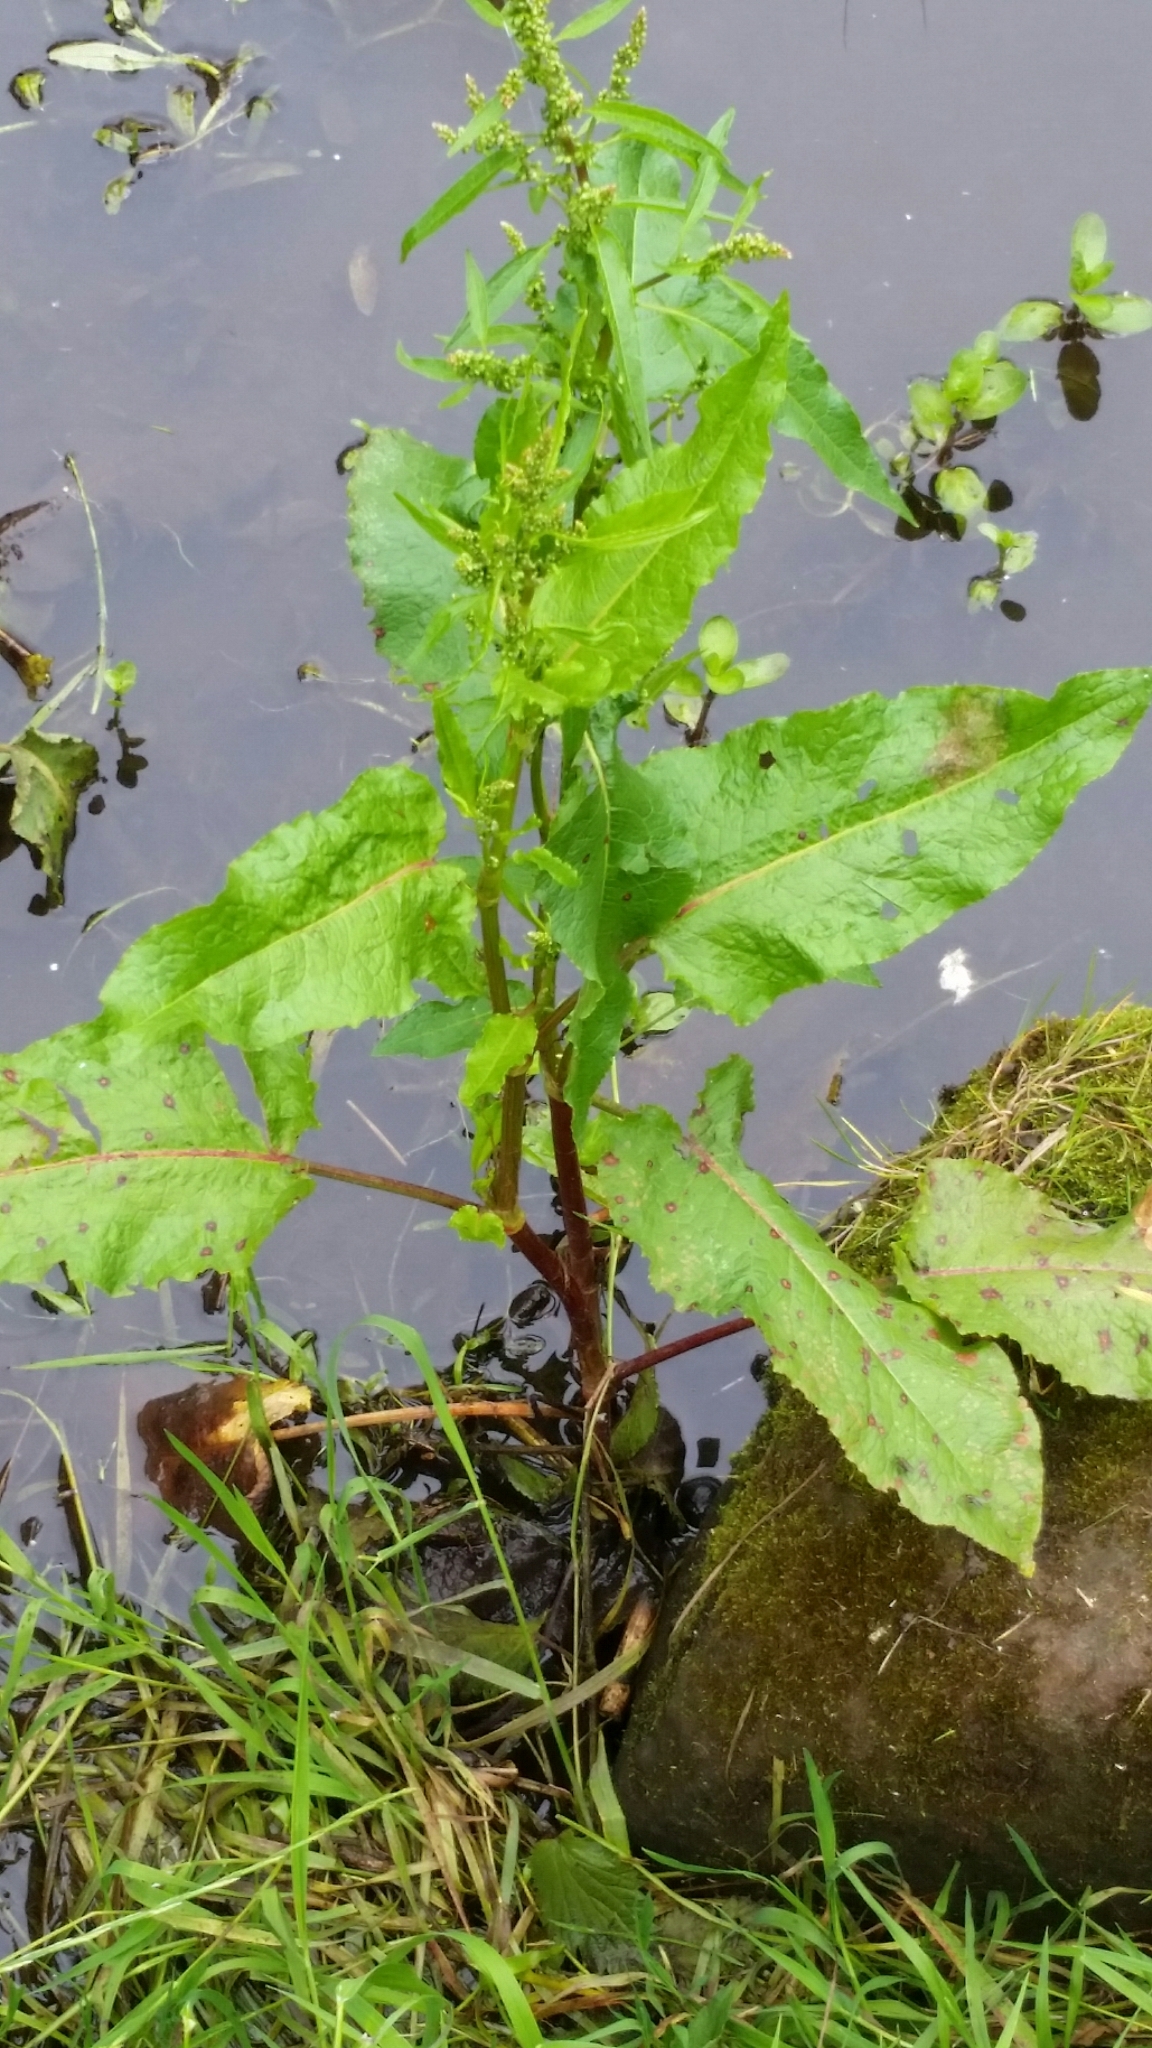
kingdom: Plantae
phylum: Tracheophyta
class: Magnoliopsida
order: Caryophyllales
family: Polygonaceae
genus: Rumex
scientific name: Rumex obtusifolius
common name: Bitter dock
